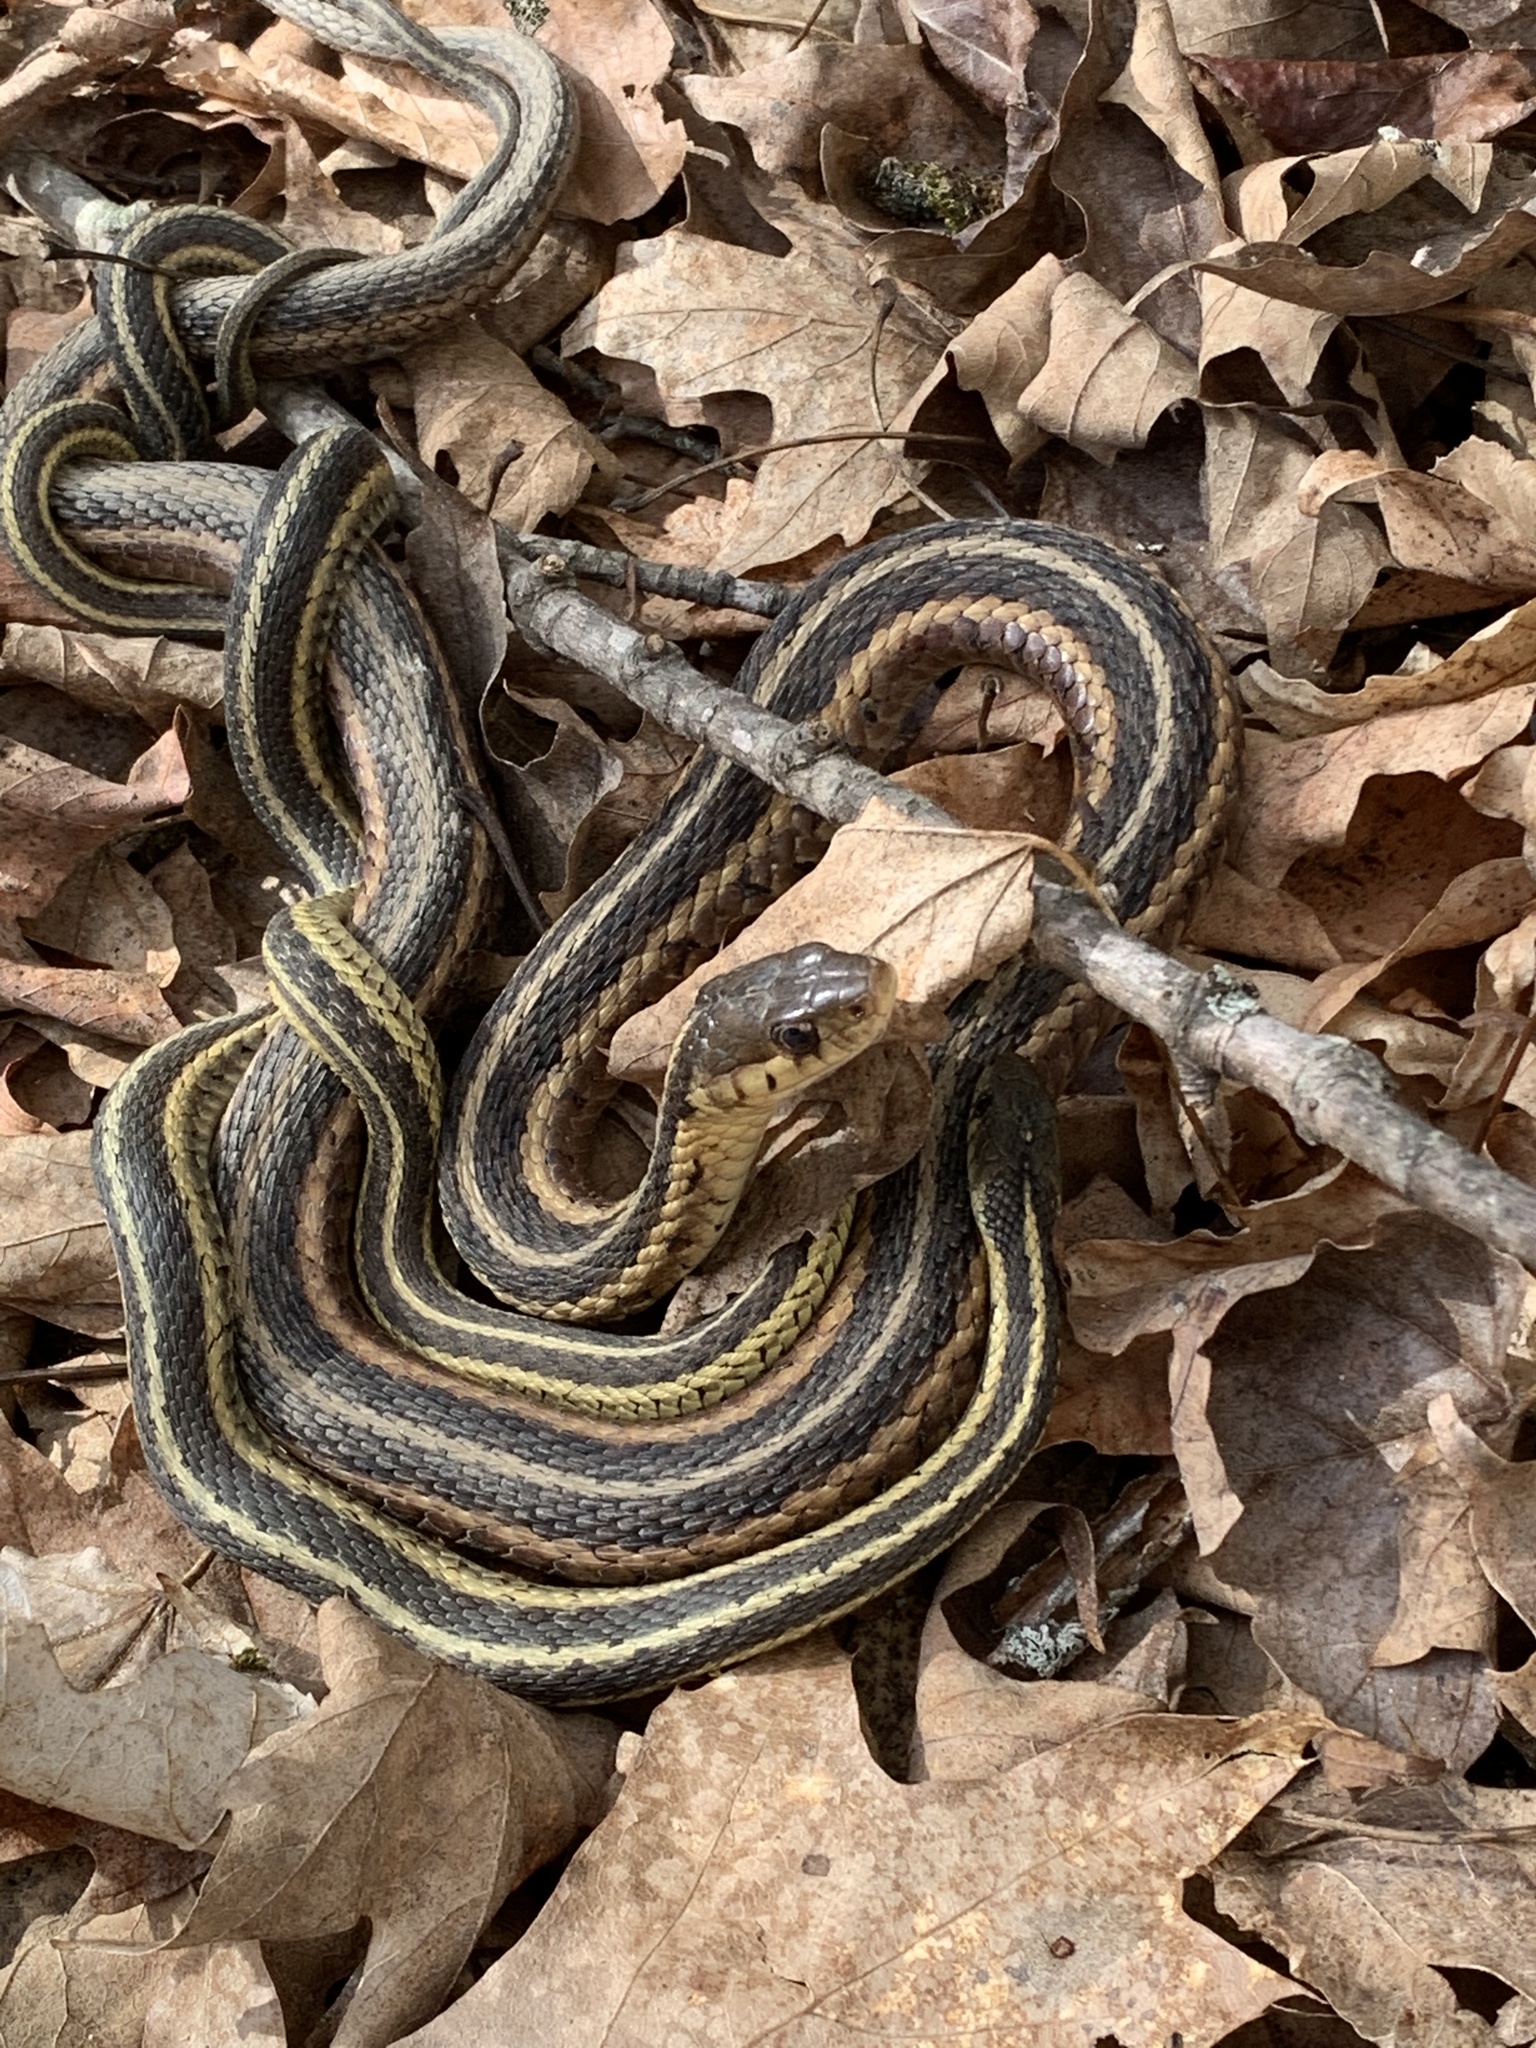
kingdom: Animalia
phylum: Chordata
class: Squamata
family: Colubridae
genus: Thamnophis
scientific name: Thamnophis sirtalis
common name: Common garter snake
